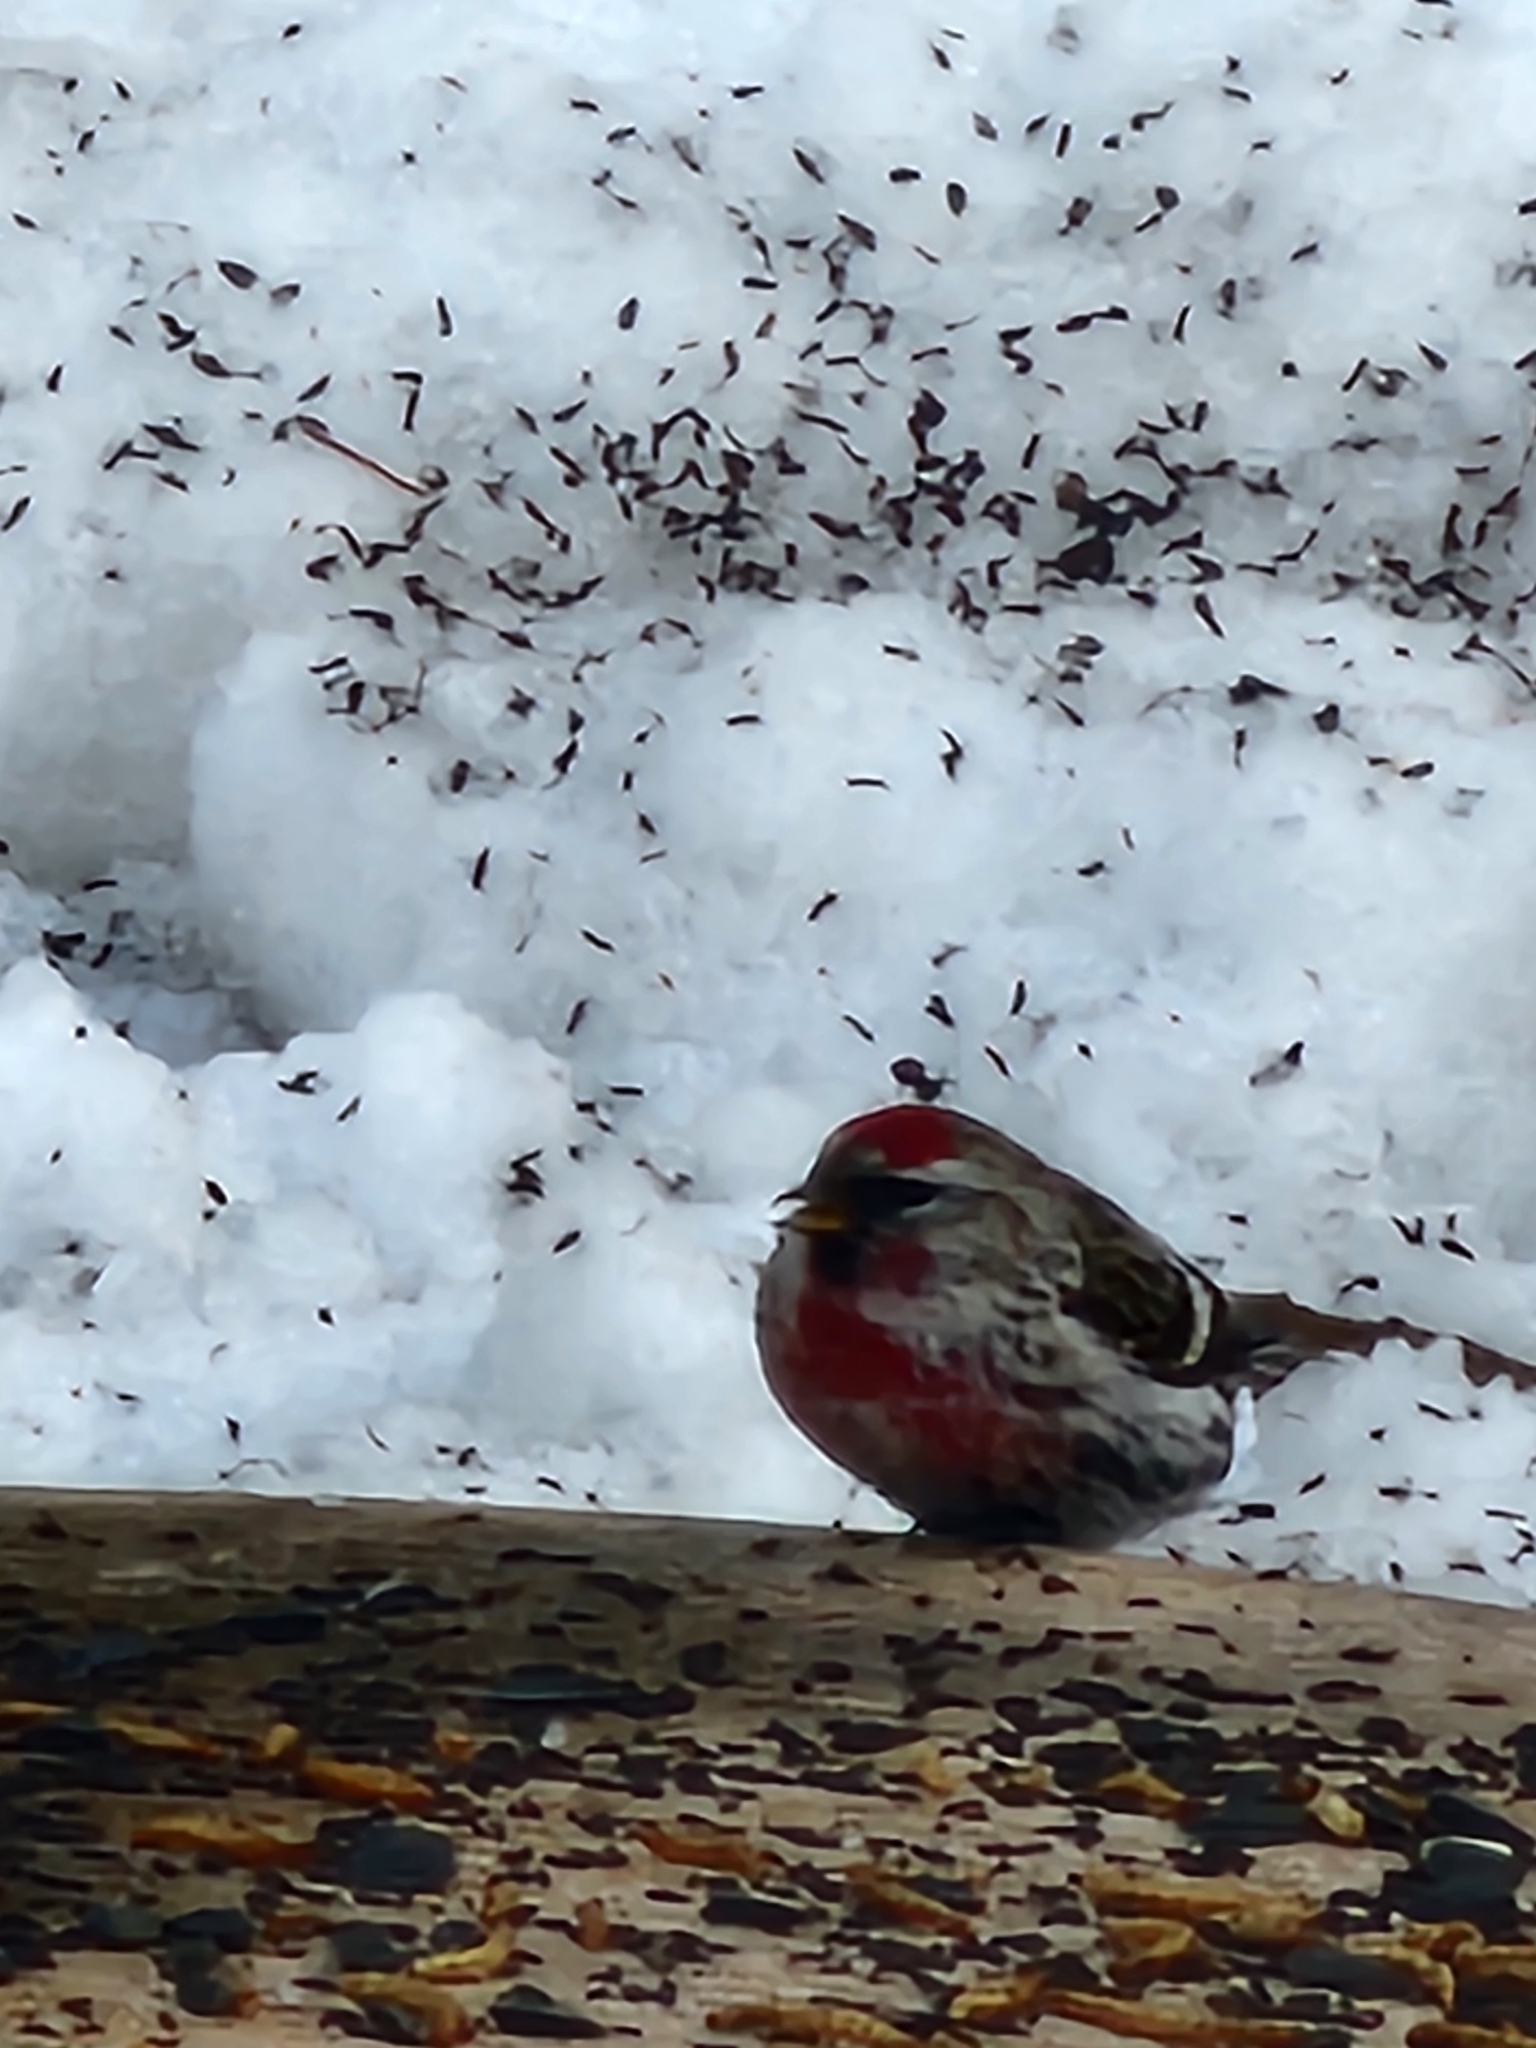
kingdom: Animalia
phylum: Chordata
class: Aves
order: Passeriformes
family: Fringillidae
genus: Acanthis
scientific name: Acanthis flammea
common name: Common redpoll
